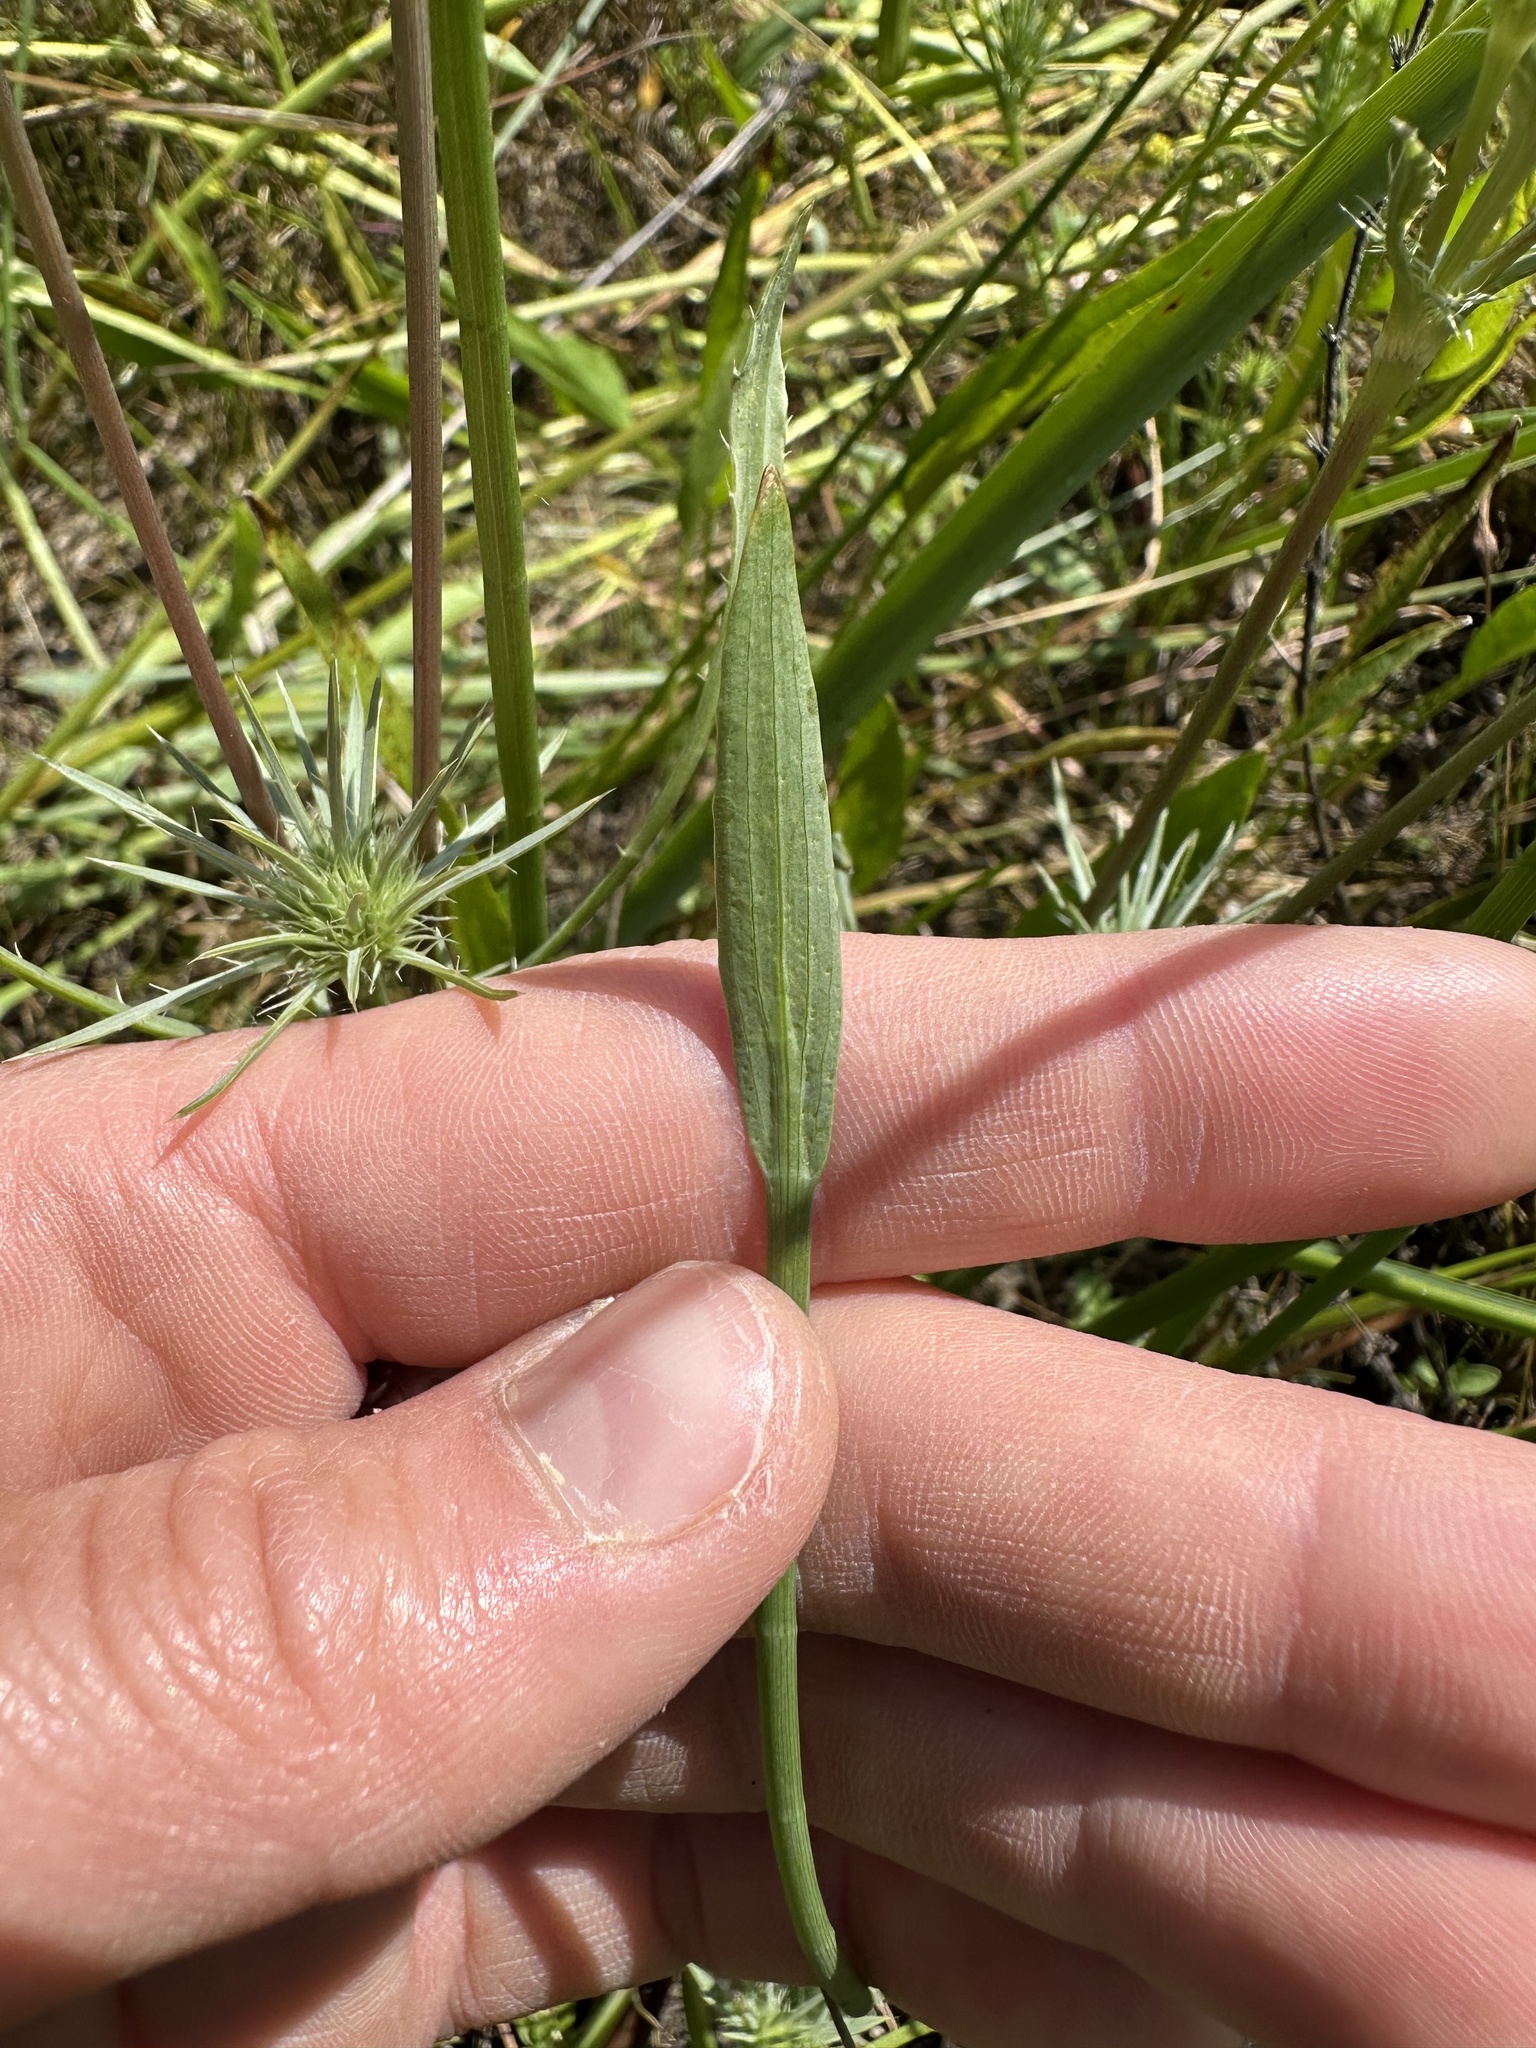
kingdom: Plantae
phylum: Tracheophyta
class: Magnoliopsida
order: Apiales
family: Apiaceae
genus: Eryngium
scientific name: Eryngium petiolatum
